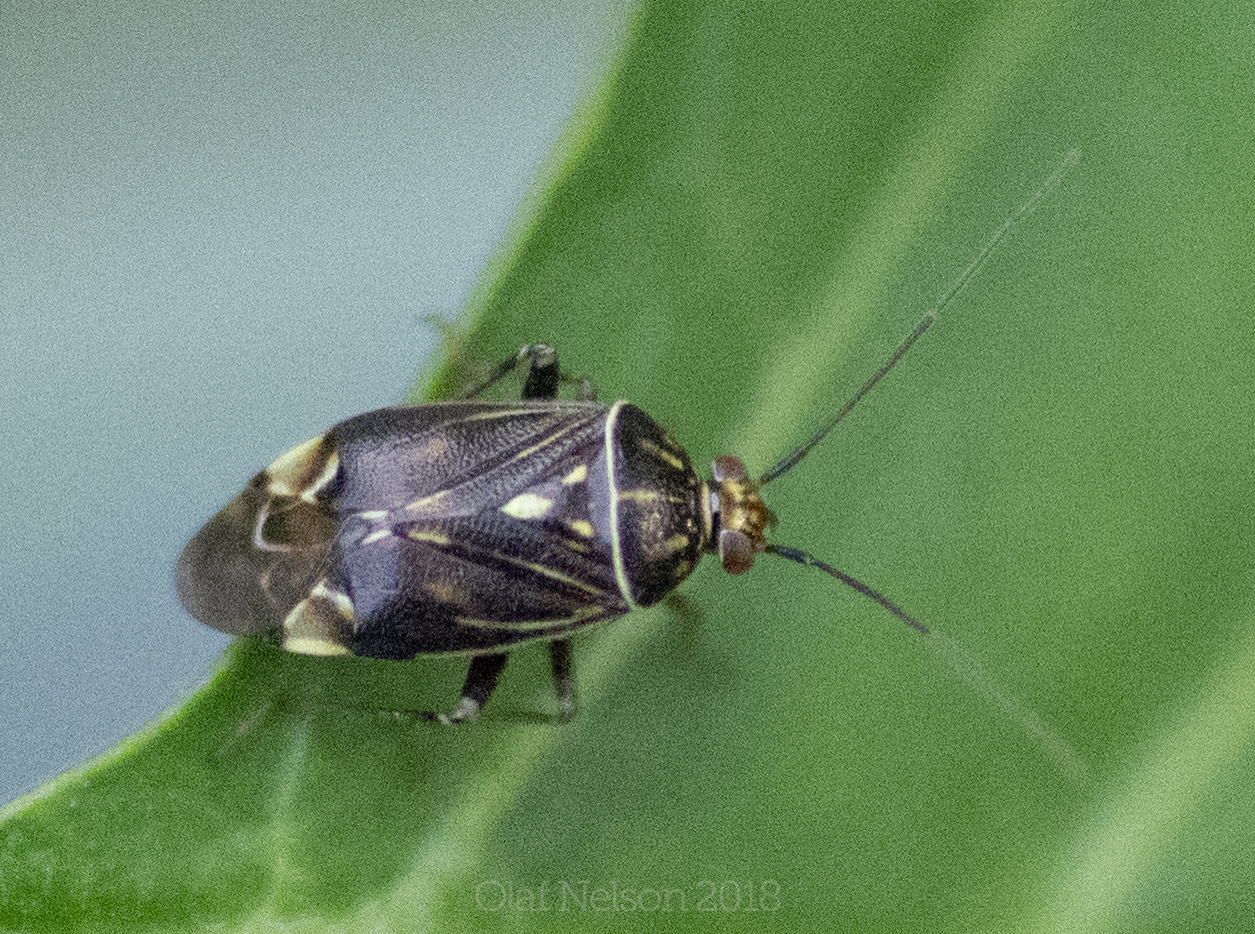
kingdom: Animalia
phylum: Arthropoda
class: Insecta
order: Hemiptera
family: Miridae
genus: Lygus
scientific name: Lygus lineolaris
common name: North american tarnished plant bug
